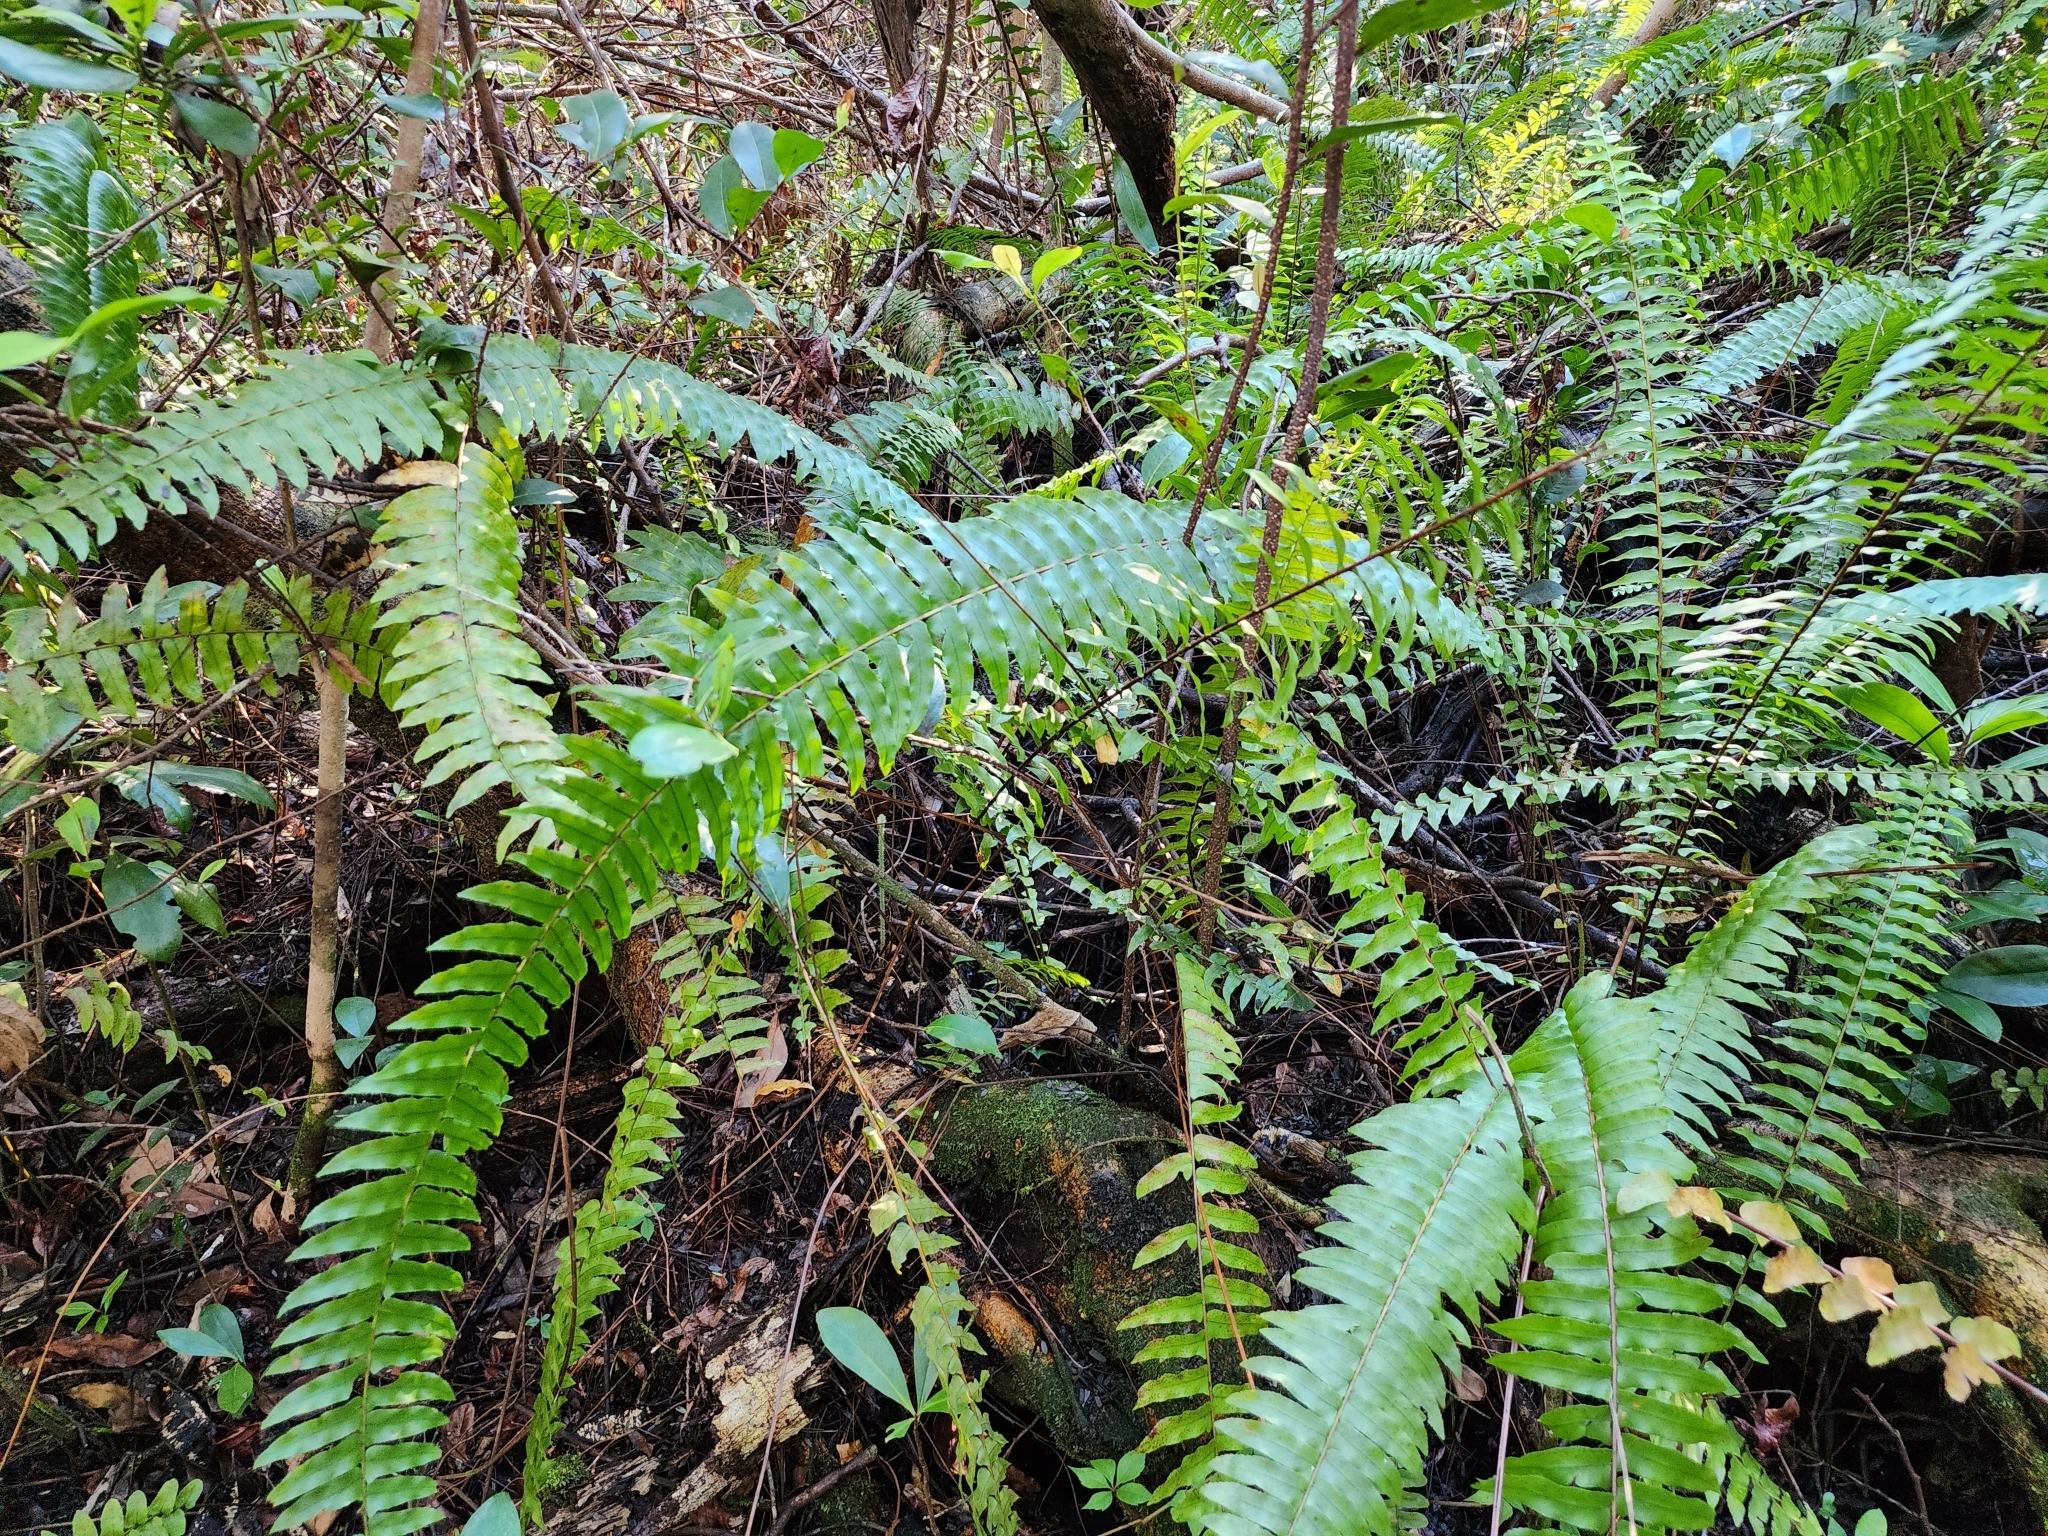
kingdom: Plantae
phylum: Tracheophyta
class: Polypodiopsida
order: Polypodiales
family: Nephrolepidaceae
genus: Nephrolepis
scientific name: Nephrolepis exaltata
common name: Sword fern
